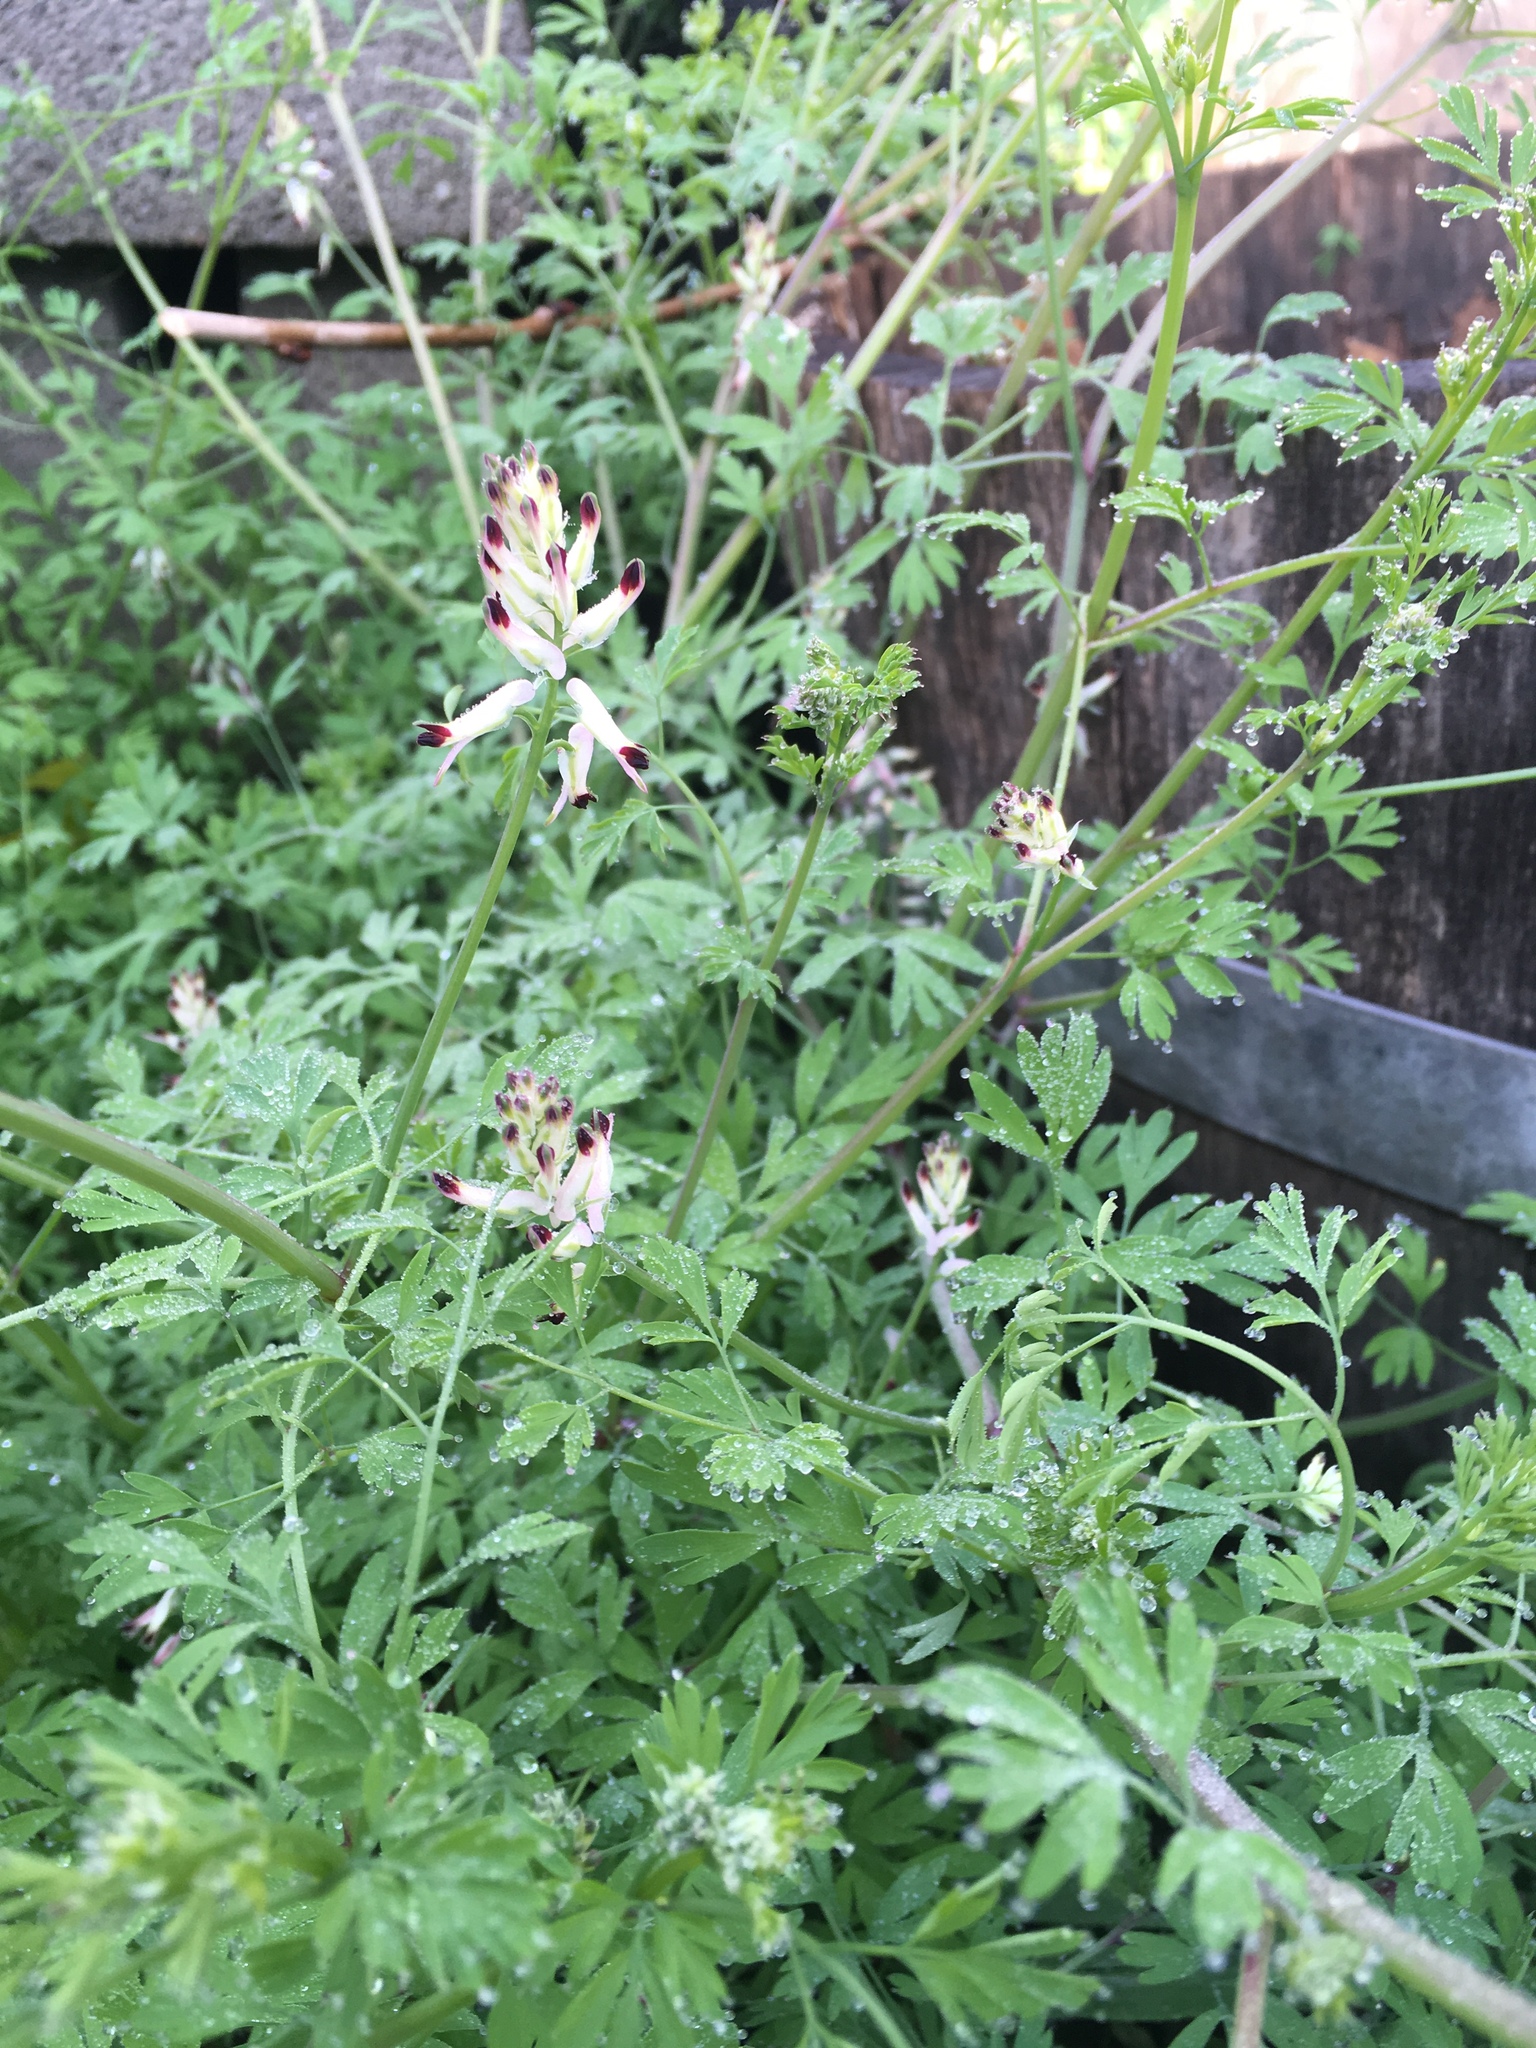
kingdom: Plantae
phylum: Tracheophyta
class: Magnoliopsida
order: Ranunculales
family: Papaveraceae
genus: Fumaria
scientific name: Fumaria capreolata
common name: White ramping-fumitory
